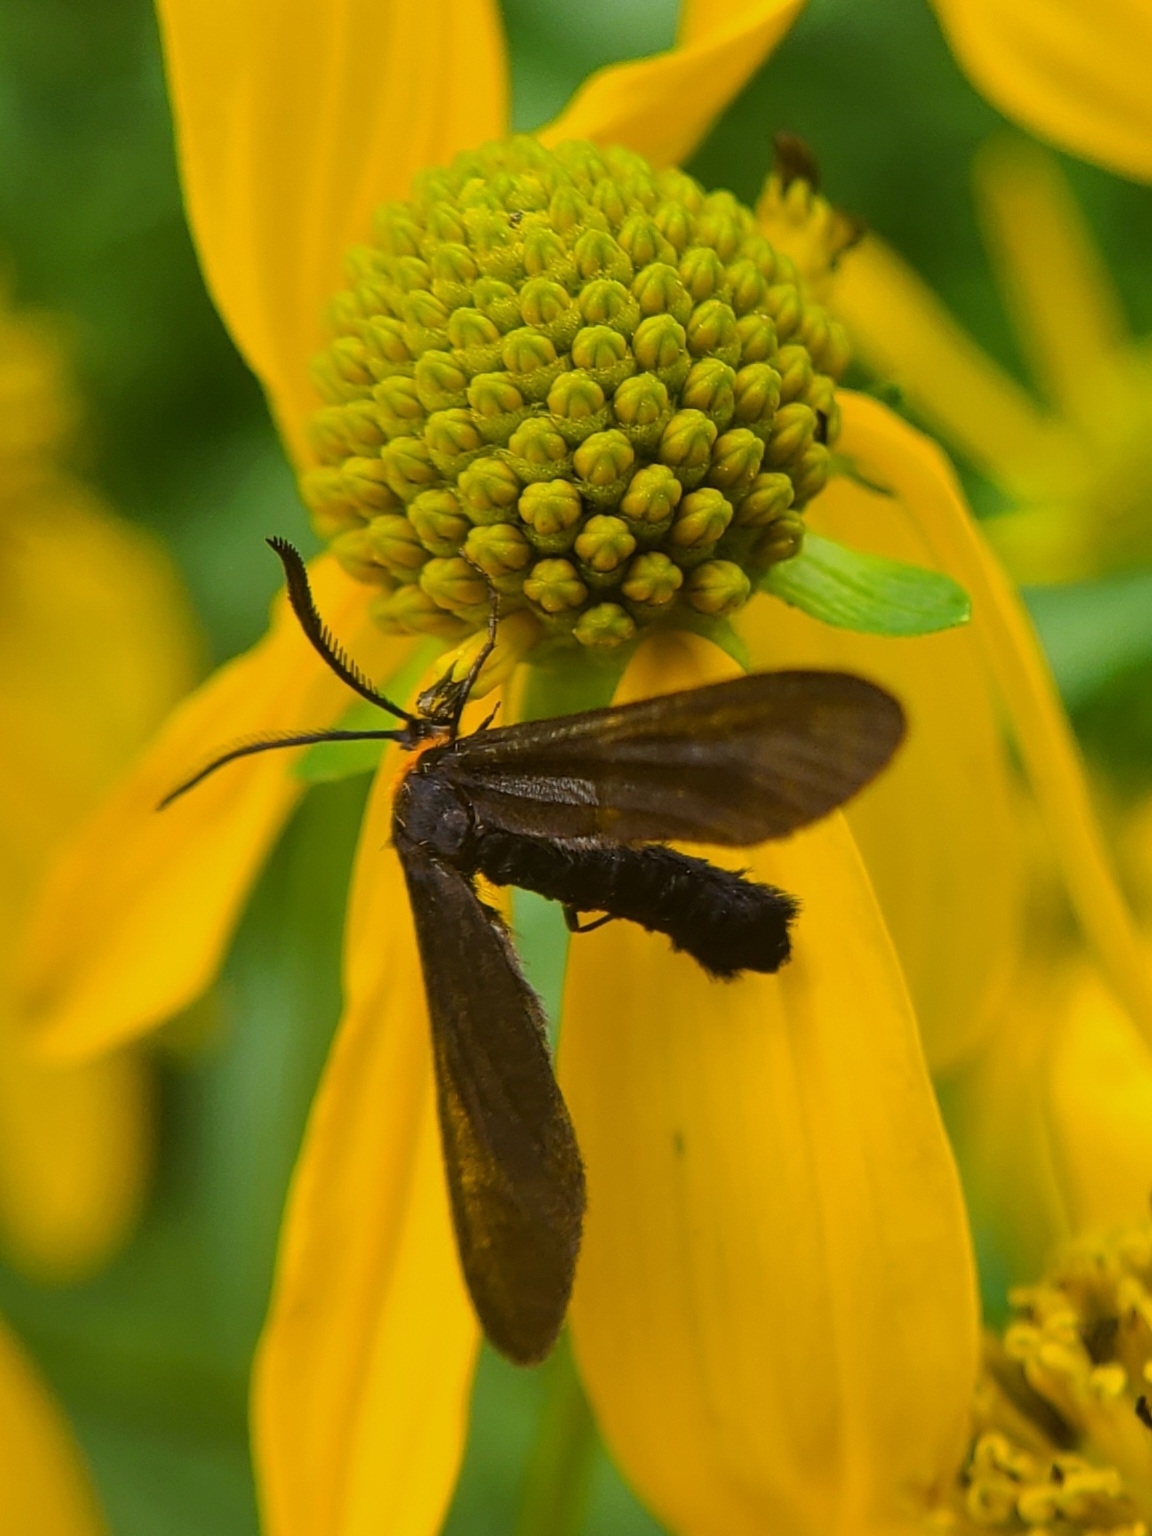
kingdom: Animalia
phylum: Arthropoda
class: Insecta
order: Lepidoptera
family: Zygaenidae
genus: Harrisina
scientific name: Harrisina americana
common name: Grapeleaf skeletonizer moth
